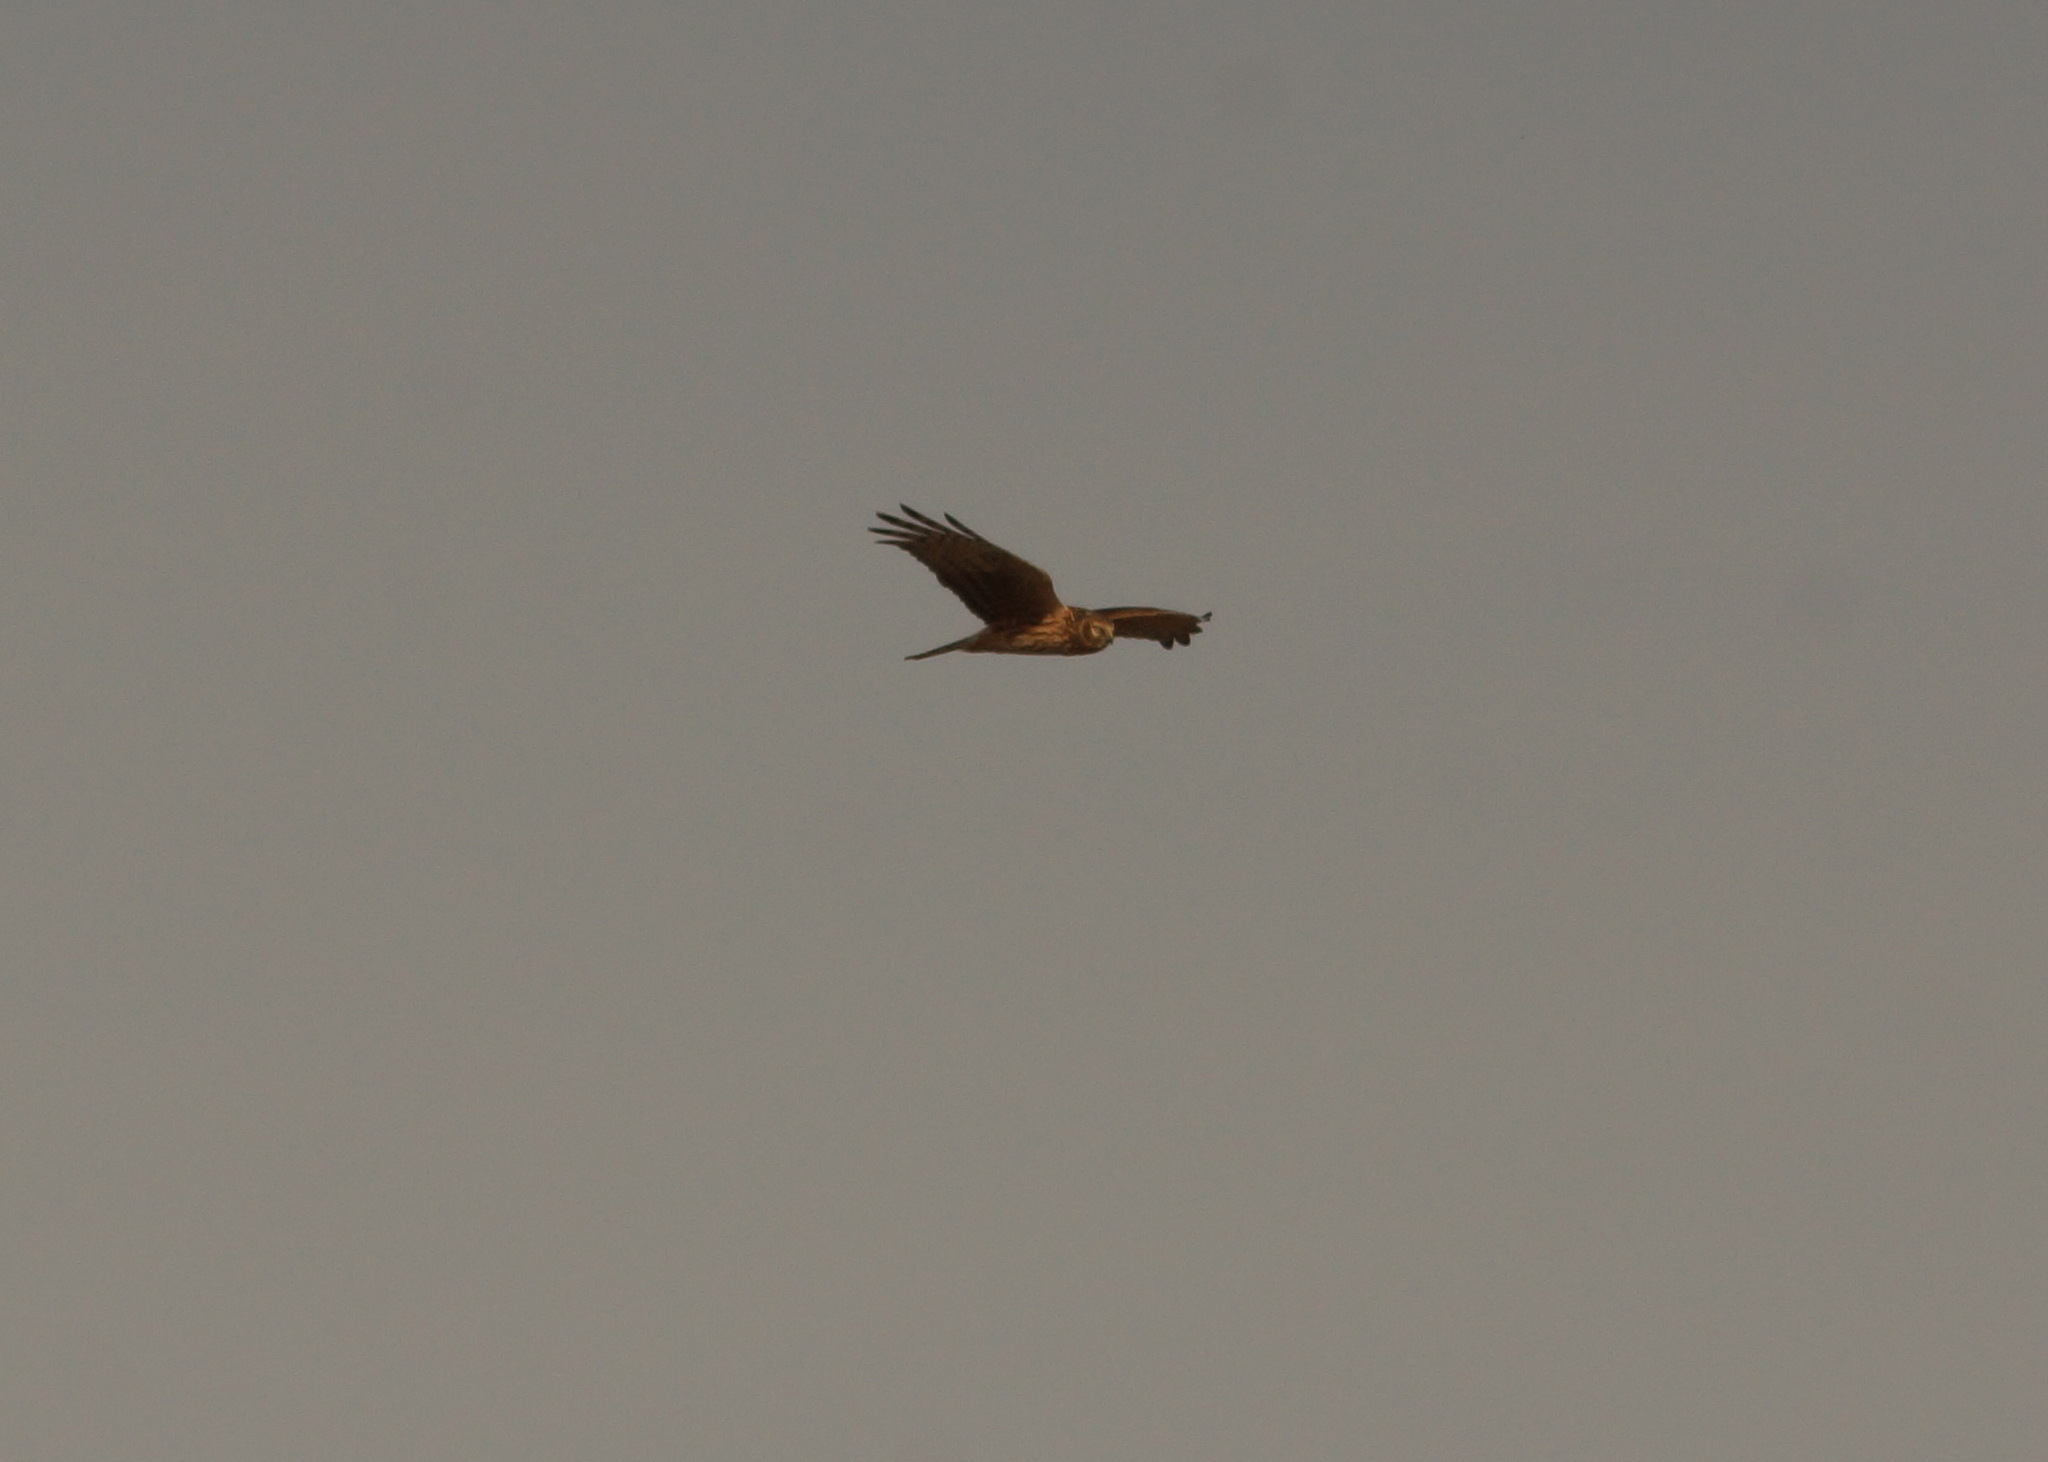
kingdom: Animalia
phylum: Chordata
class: Aves
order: Accipitriformes
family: Accipitridae
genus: Circus
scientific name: Circus cyaneus
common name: Hen harrier
